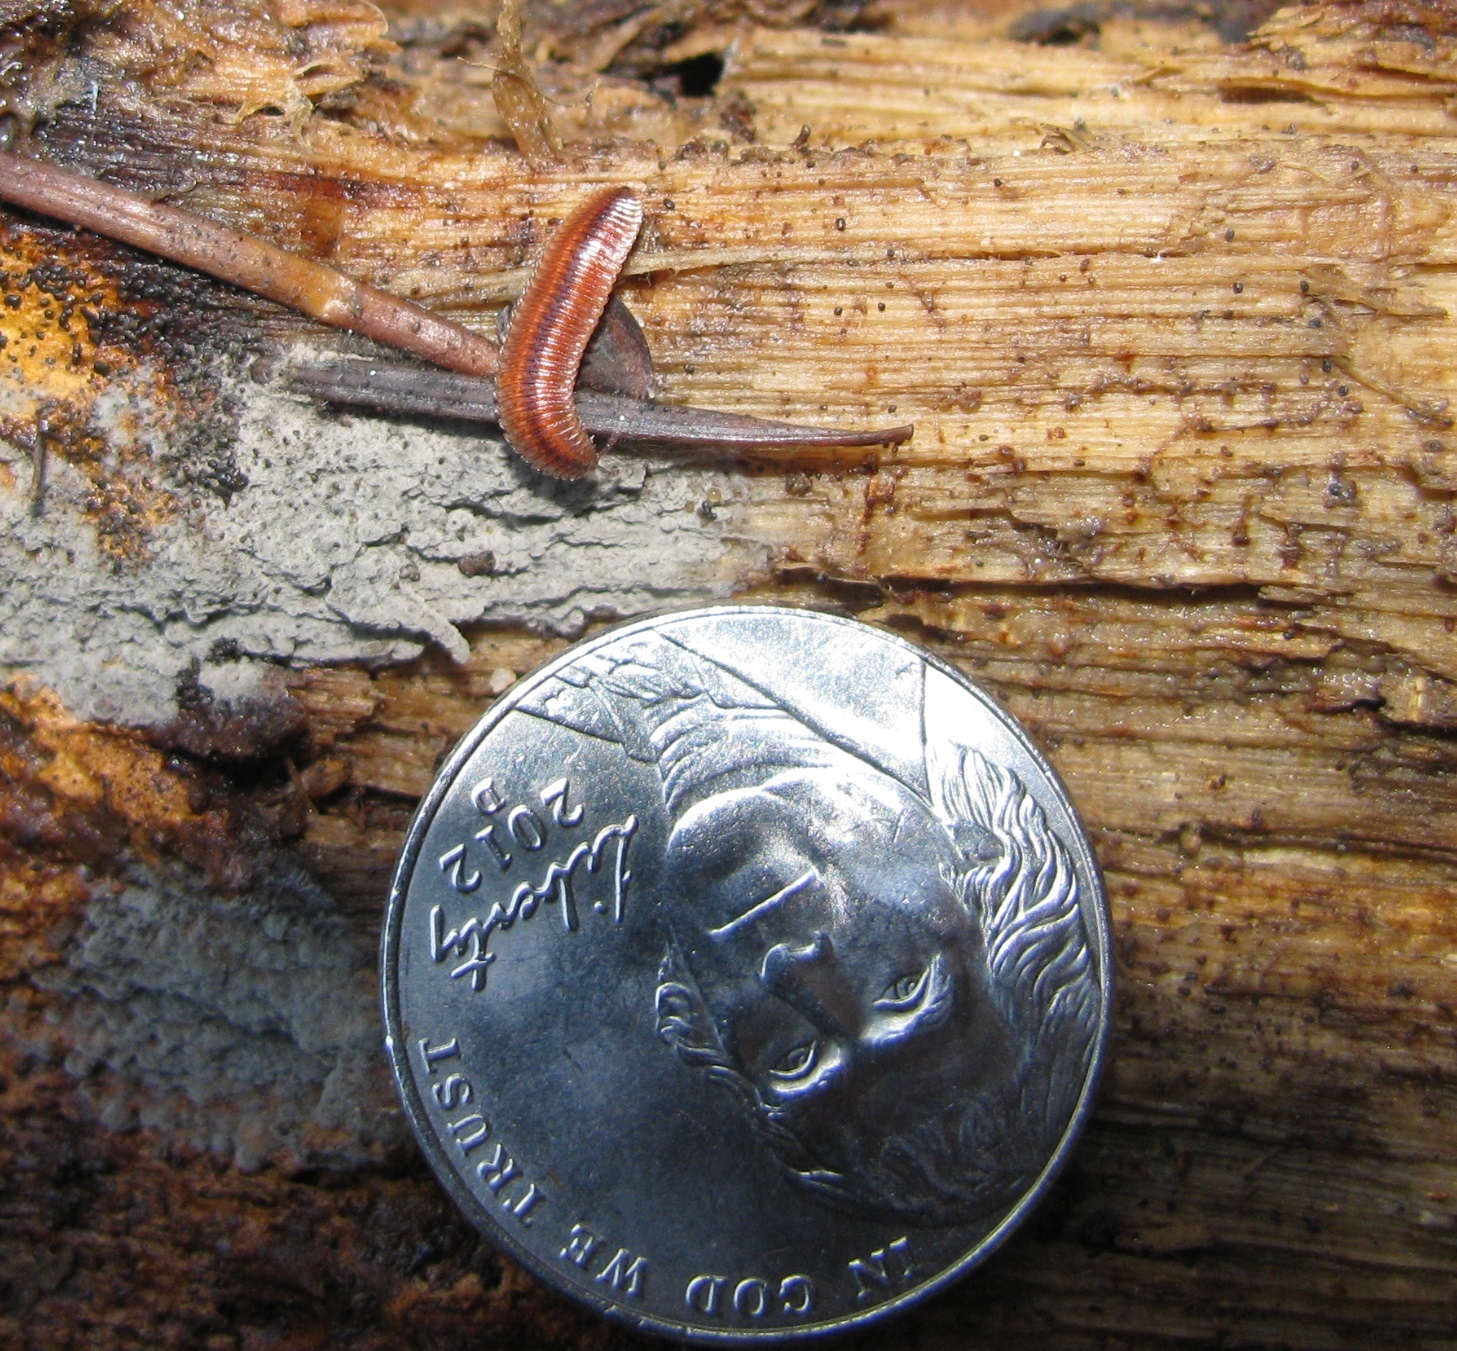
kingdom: Animalia
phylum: Arthropoda
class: Diplopoda
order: Polyzoniida
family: Hirudisomatidae
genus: Octoglena
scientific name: Octoglena bivirgatum
